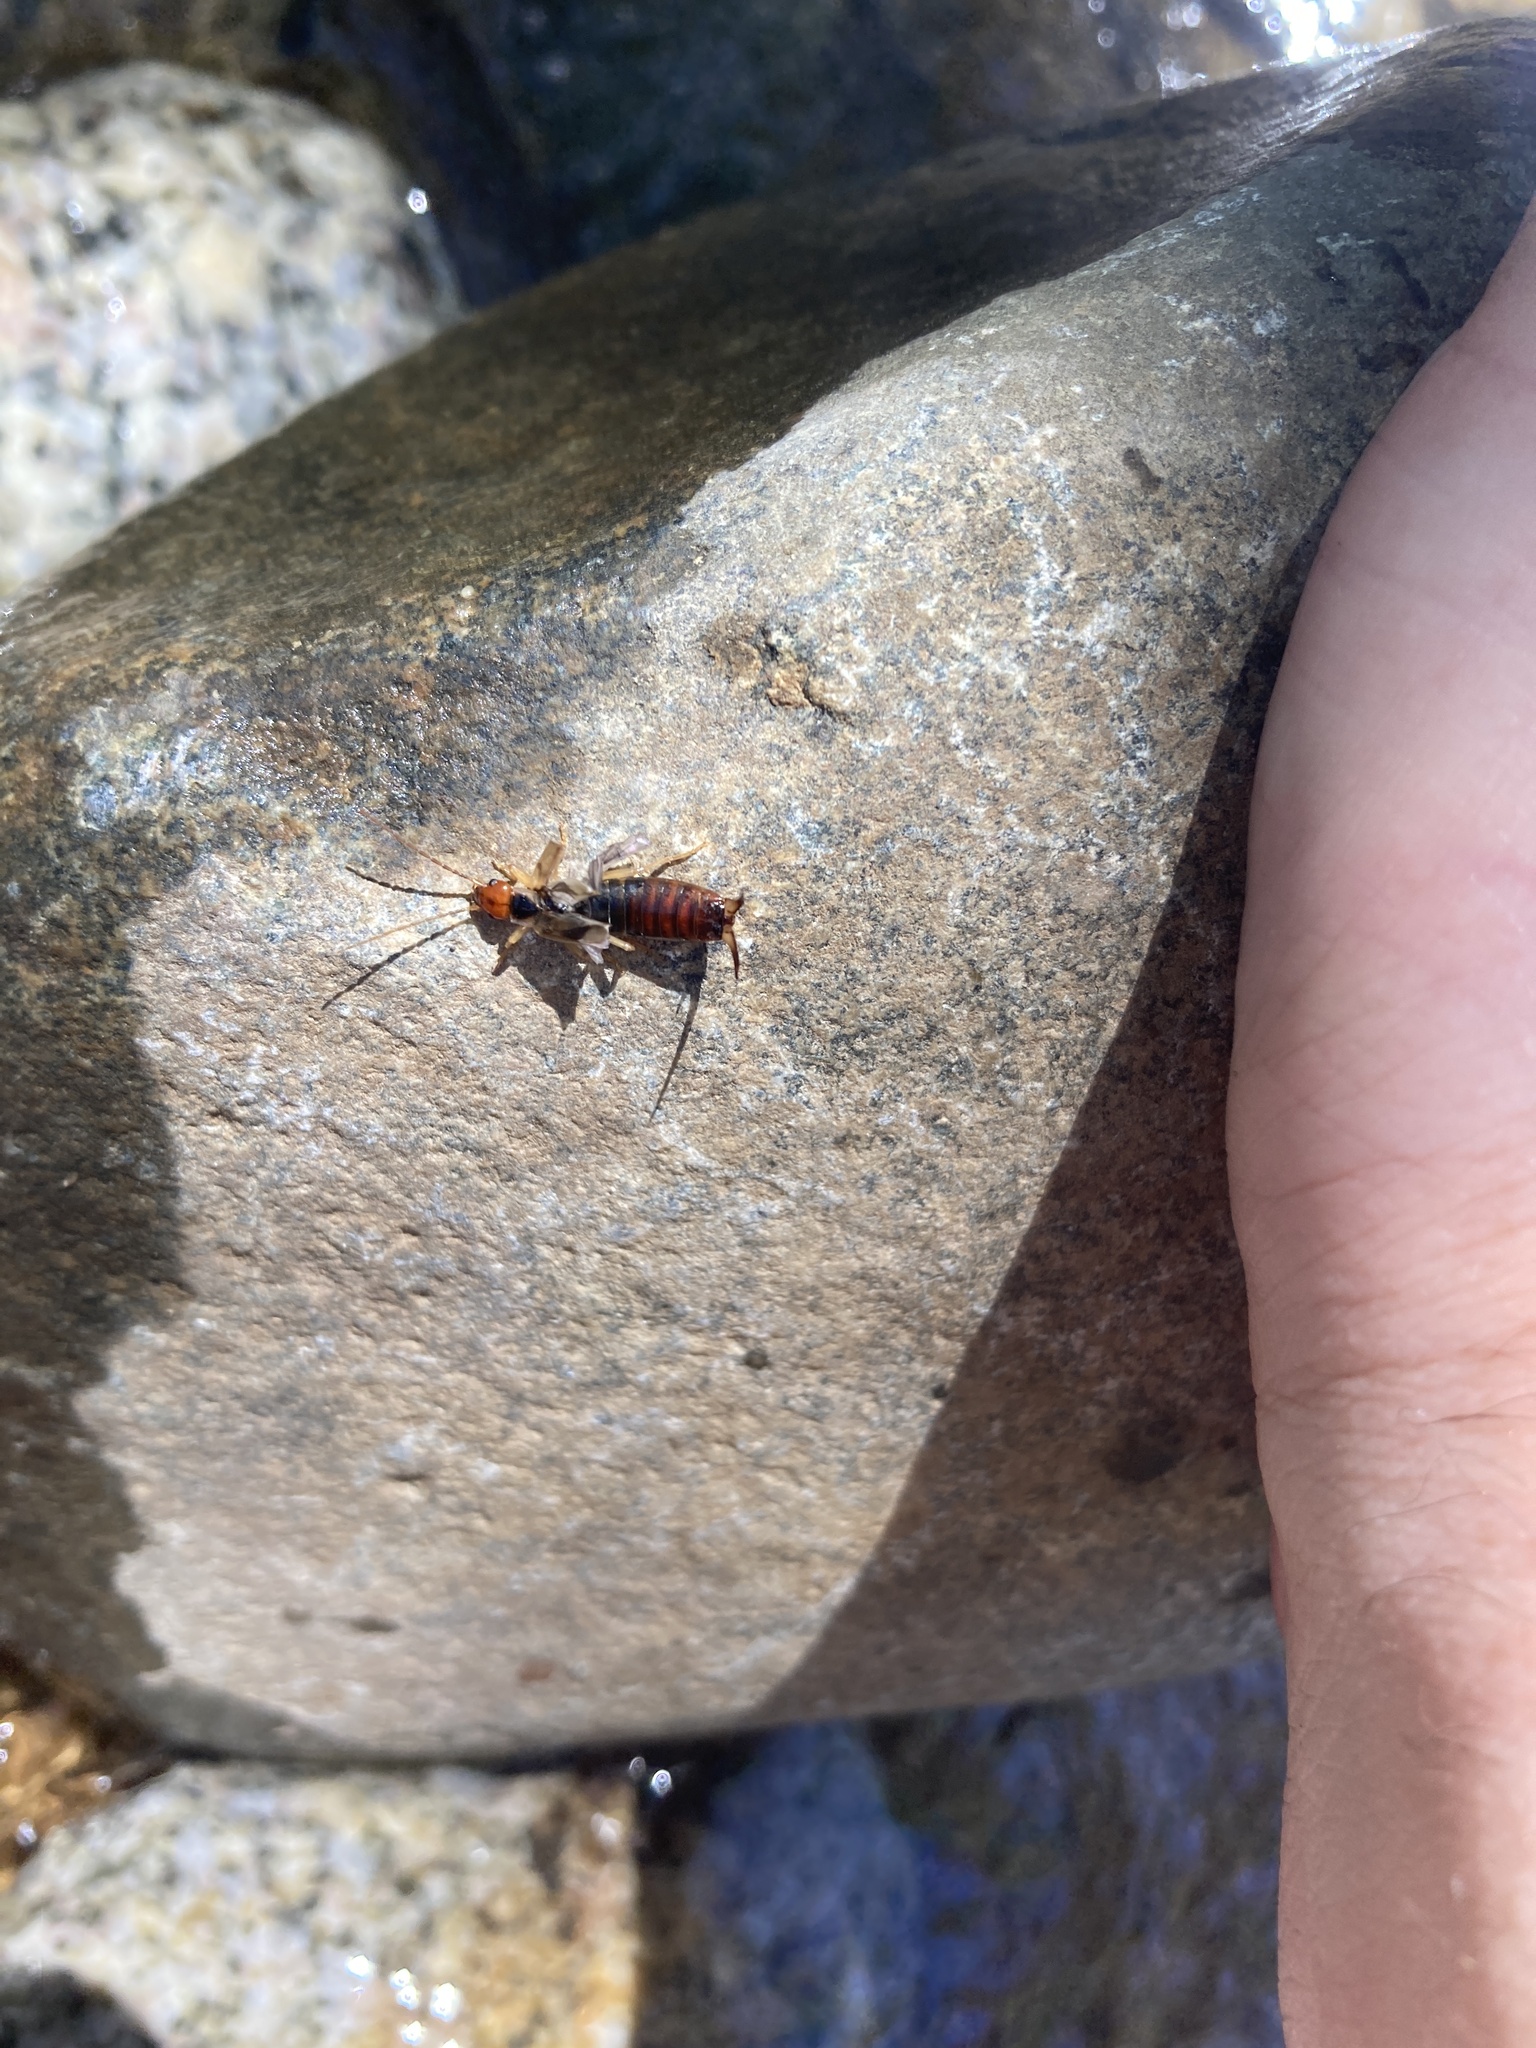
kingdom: Animalia
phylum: Arthropoda
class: Insecta
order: Dermaptera
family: Forficulidae
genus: Forficula
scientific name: Forficula
